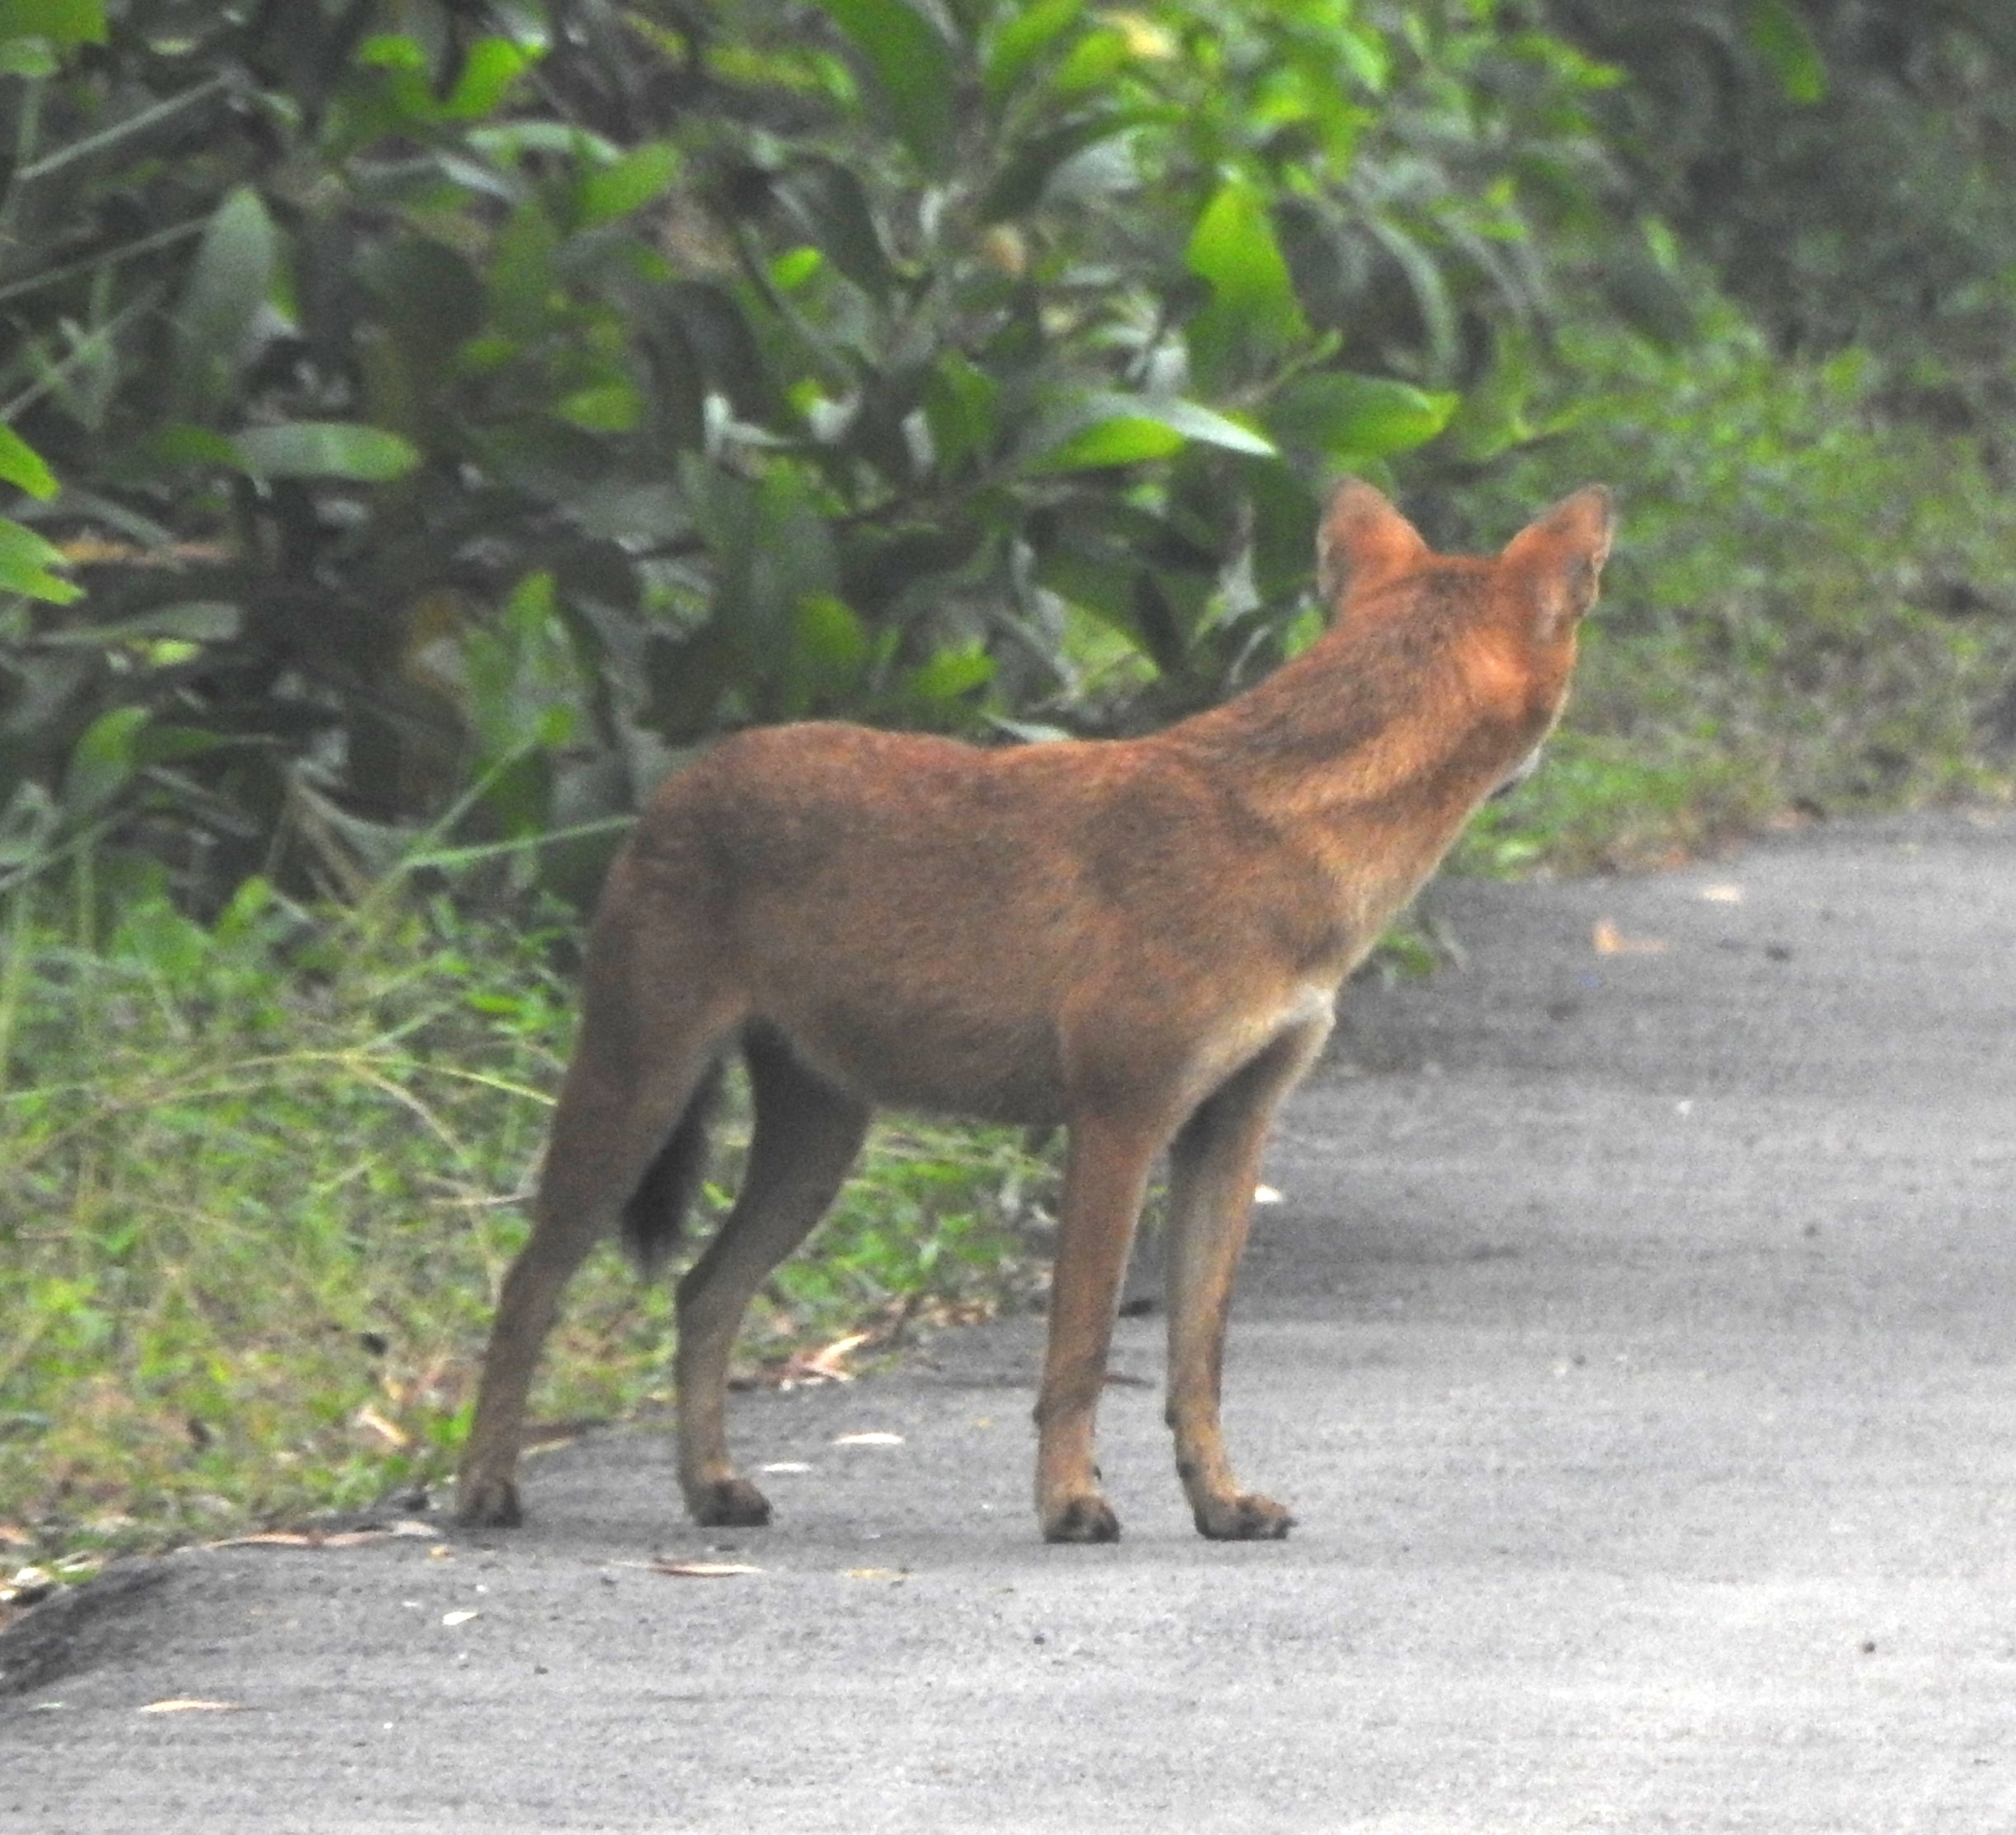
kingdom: Animalia
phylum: Chordata
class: Mammalia
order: Carnivora
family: Canidae
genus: Canis
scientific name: Canis lupus
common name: Gray wolf
